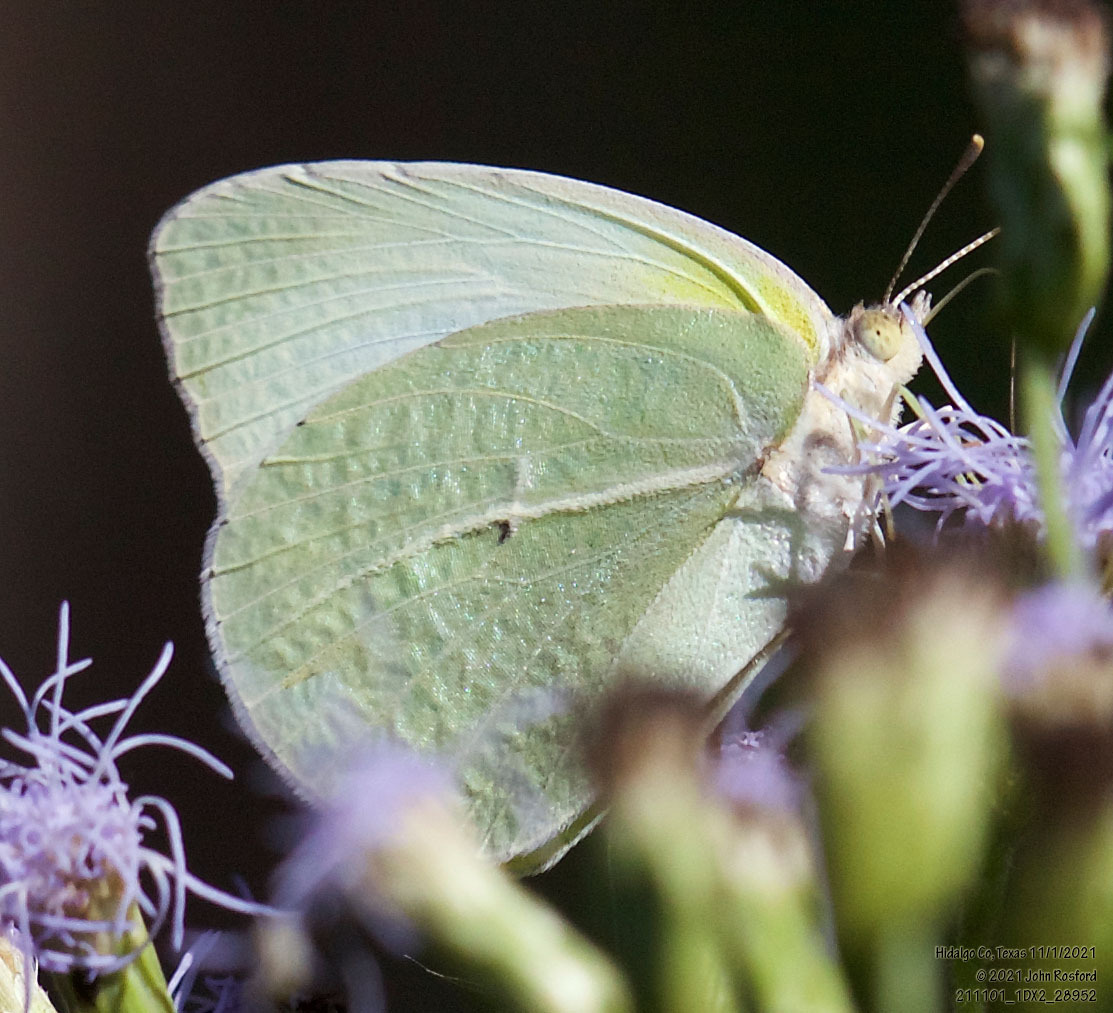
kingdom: Animalia
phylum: Arthropoda
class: Insecta
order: Lepidoptera
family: Pieridae
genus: Kricogonia
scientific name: Kricogonia lyside
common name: Guayacan sulphur,
